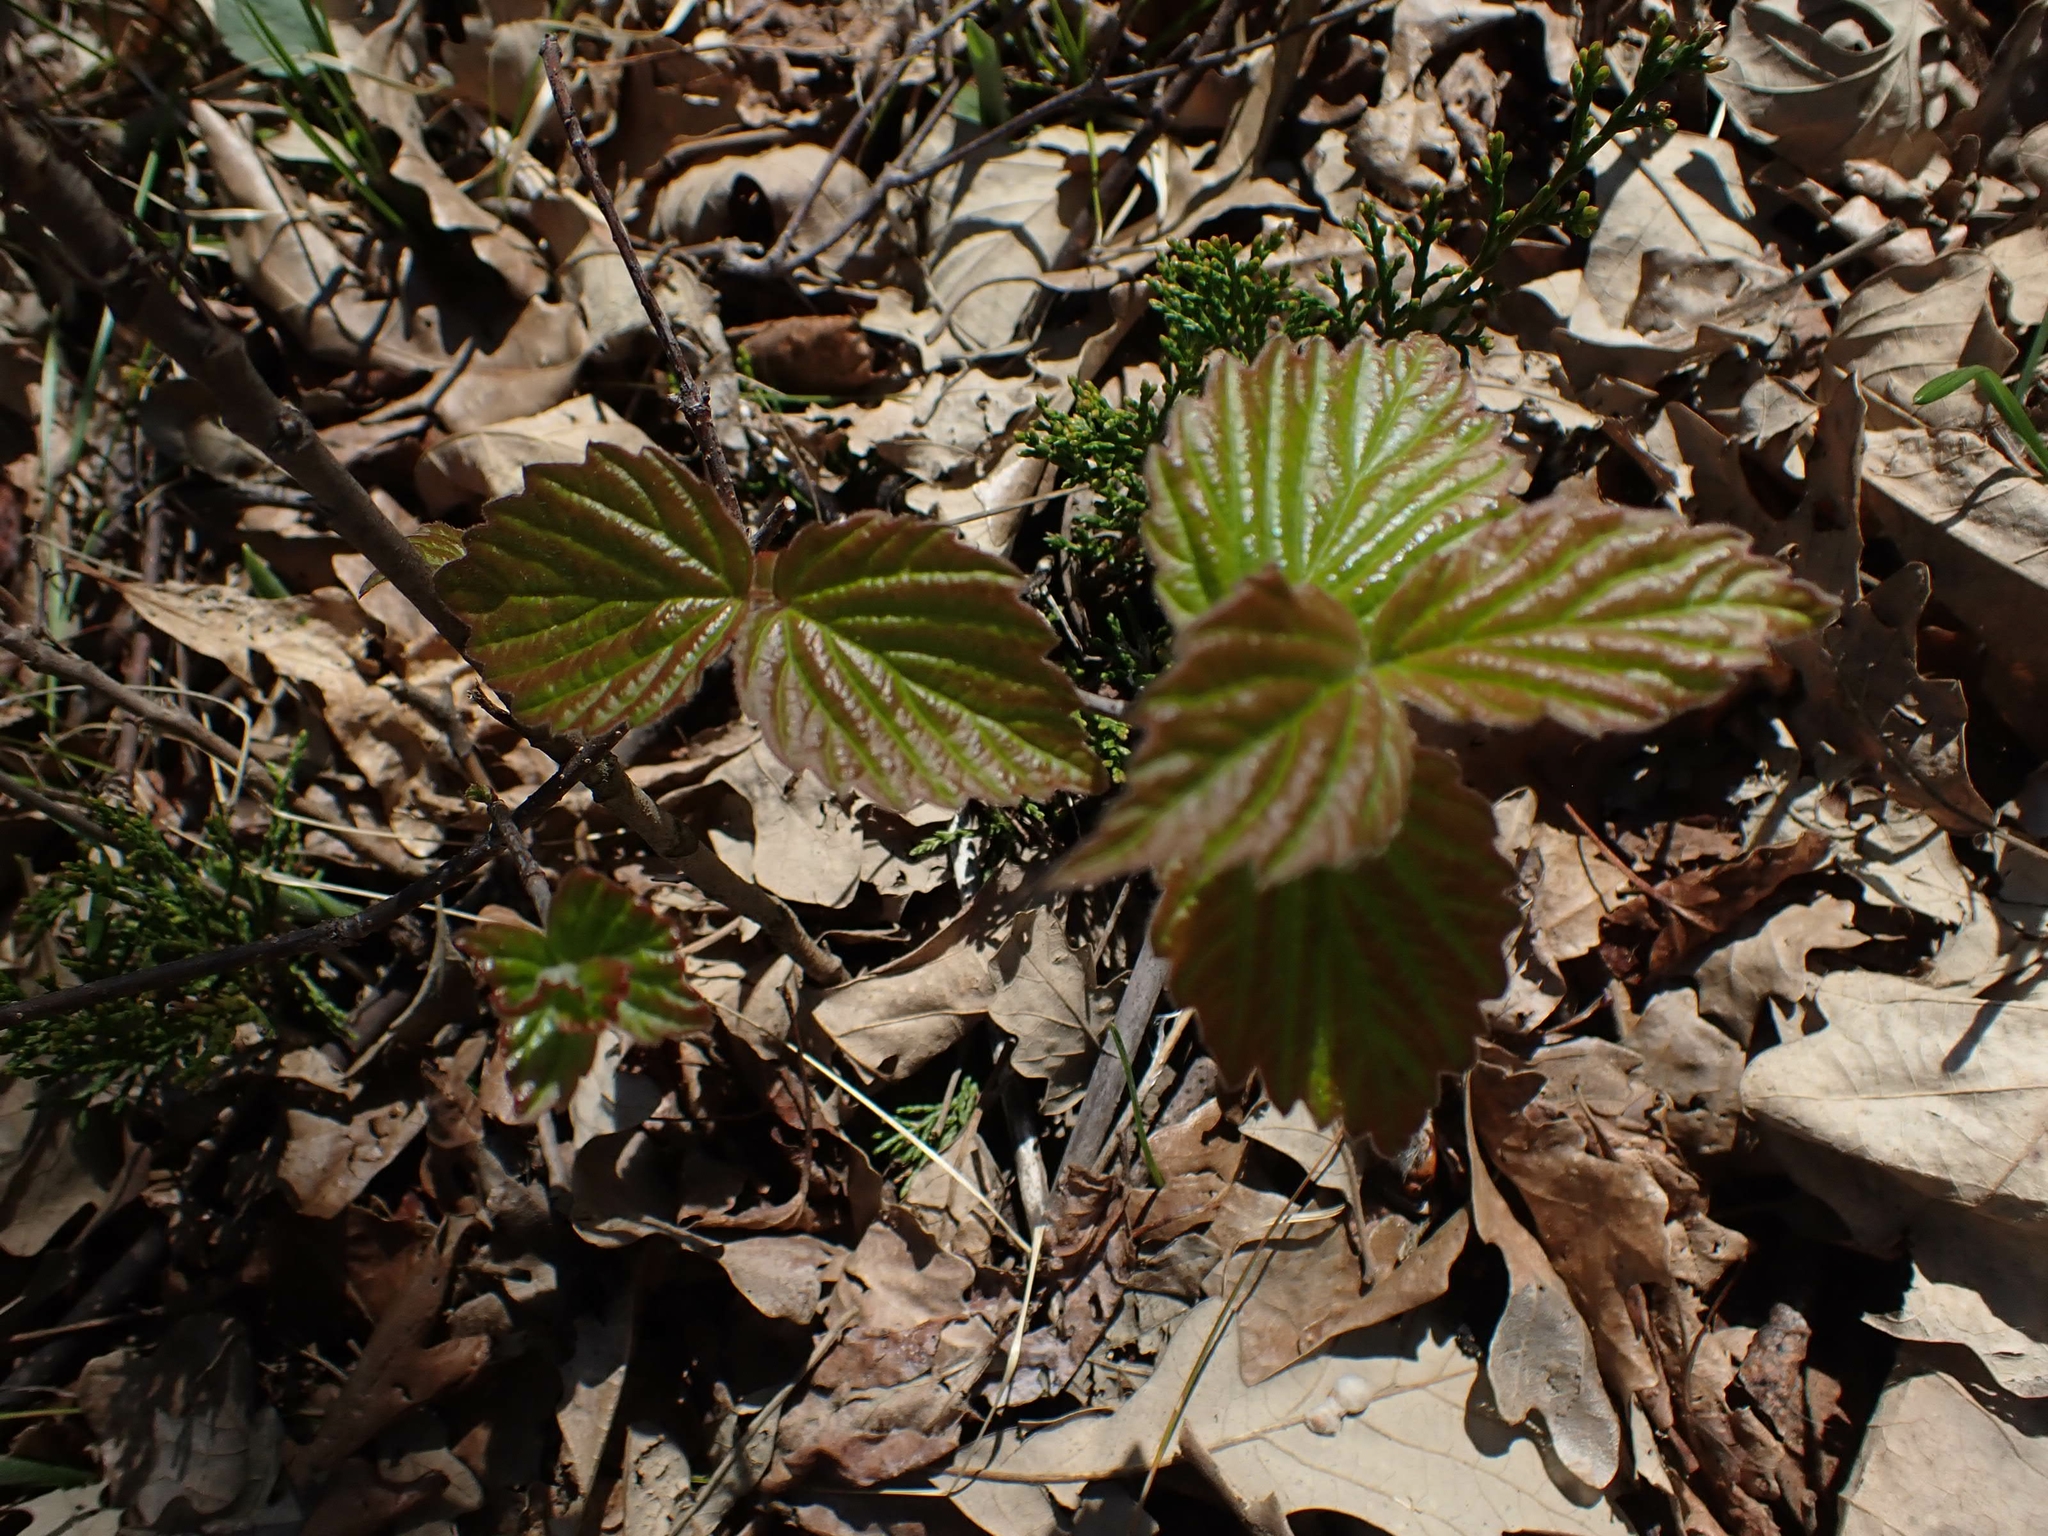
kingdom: Plantae
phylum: Tracheophyta
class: Magnoliopsida
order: Dipsacales
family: Viburnaceae
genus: Viburnum
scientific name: Viburnum rafinesqueanum
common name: Downy arrow-wood
